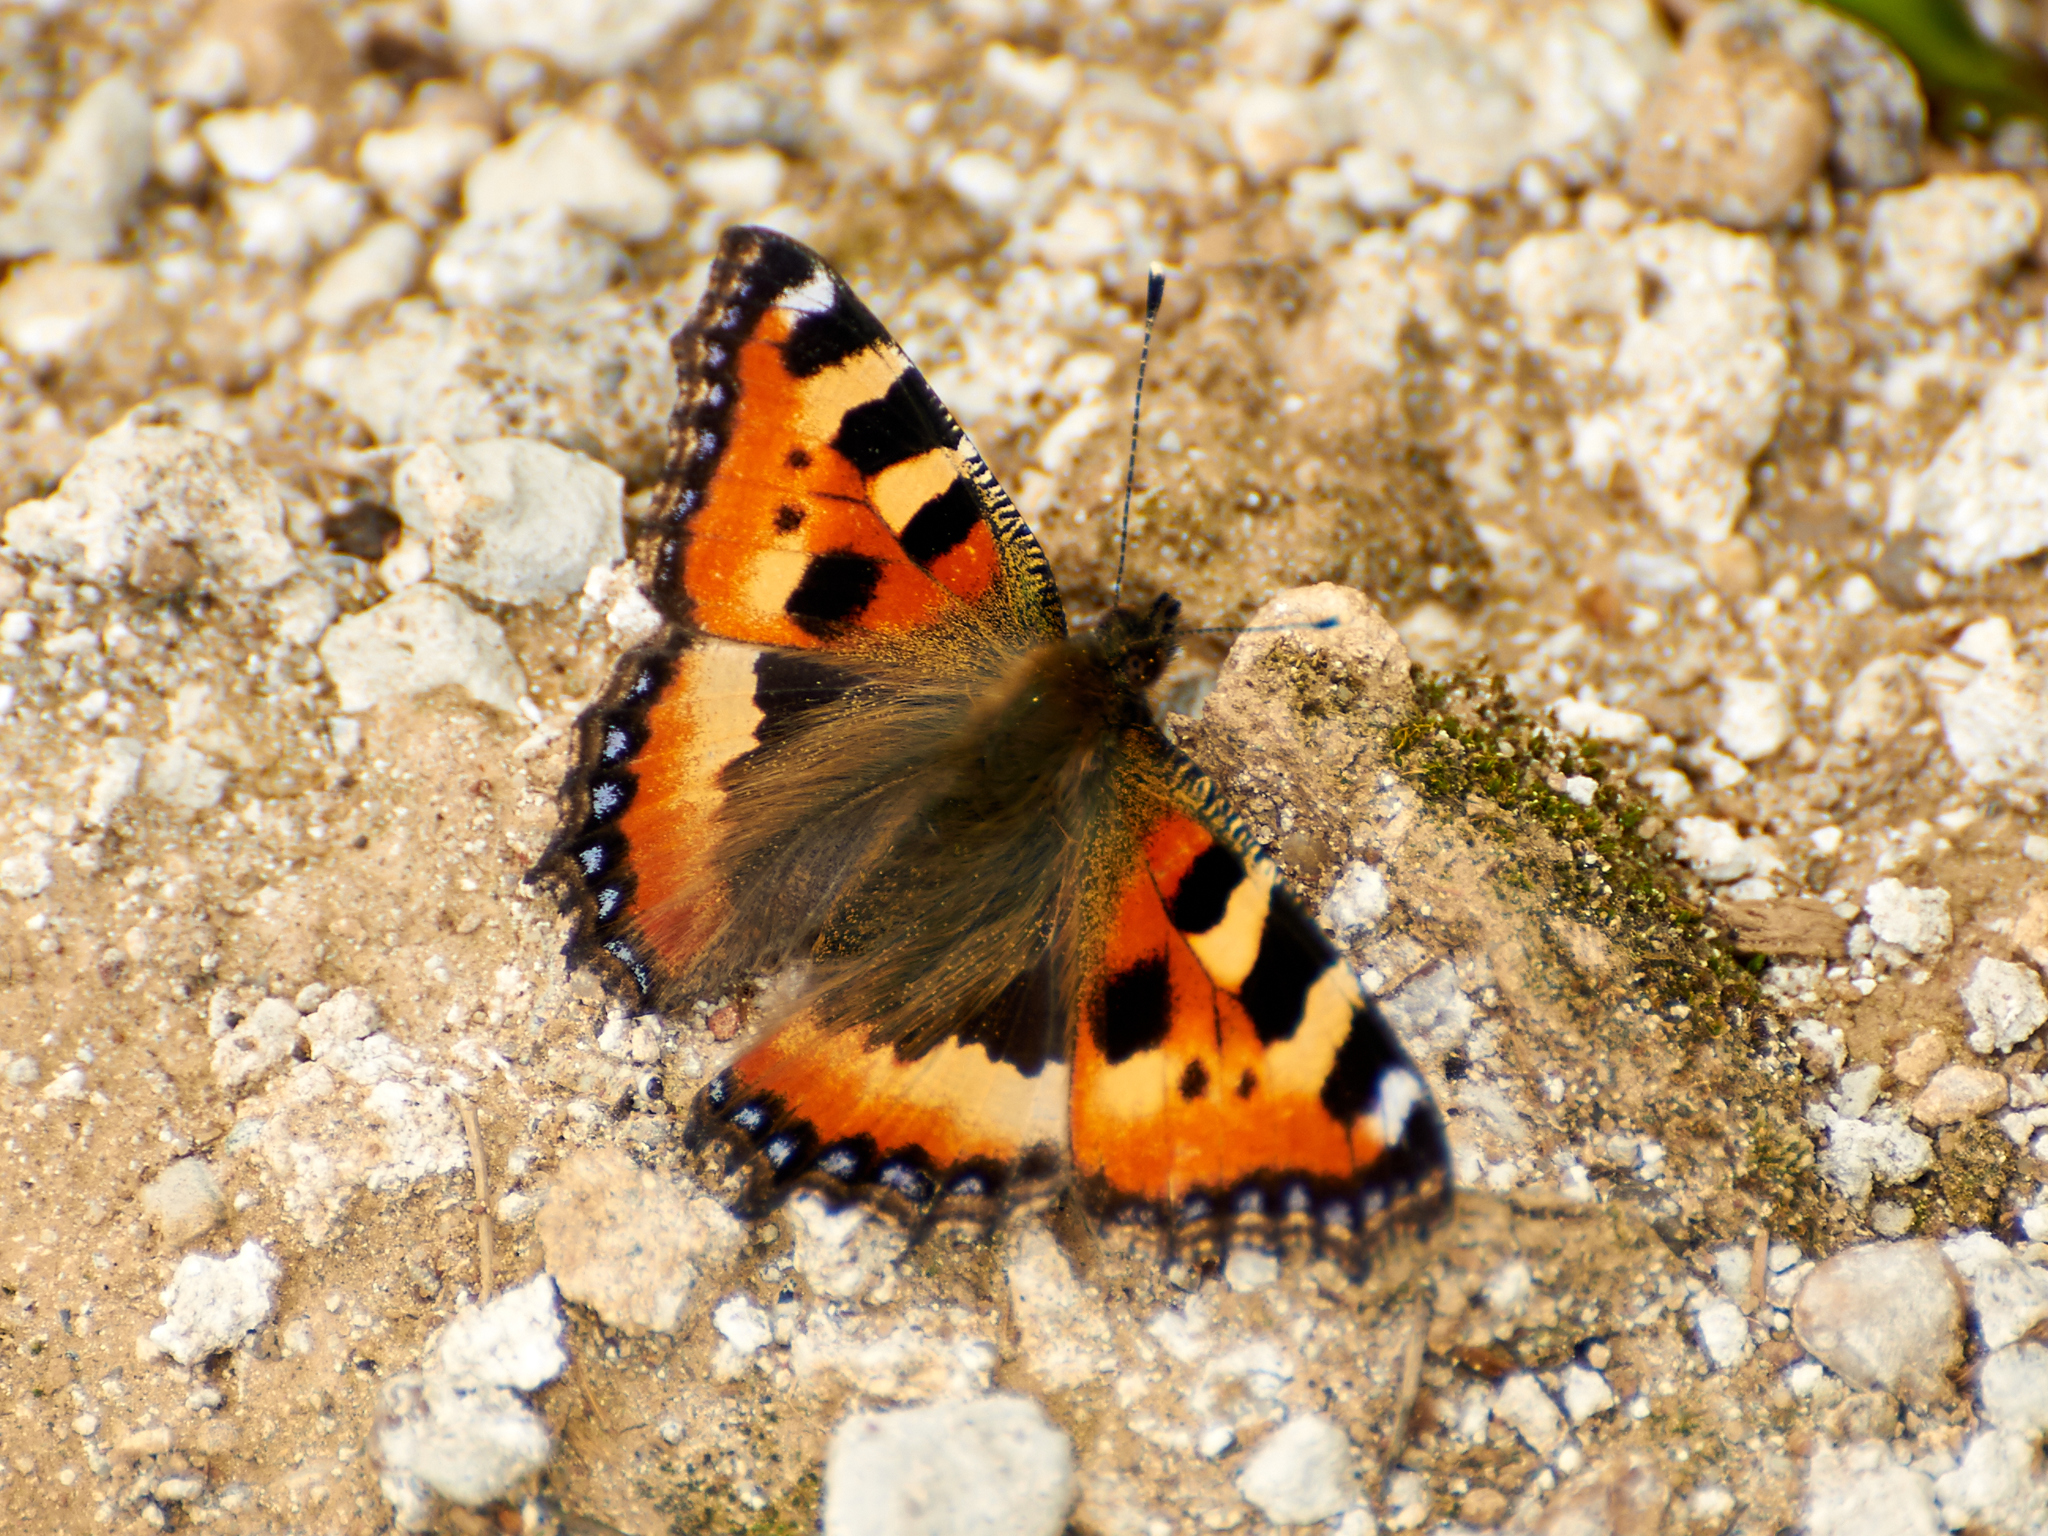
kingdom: Animalia
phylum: Arthropoda
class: Insecta
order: Lepidoptera
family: Nymphalidae
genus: Aglais
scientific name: Aglais urticae
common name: Small tortoiseshell
